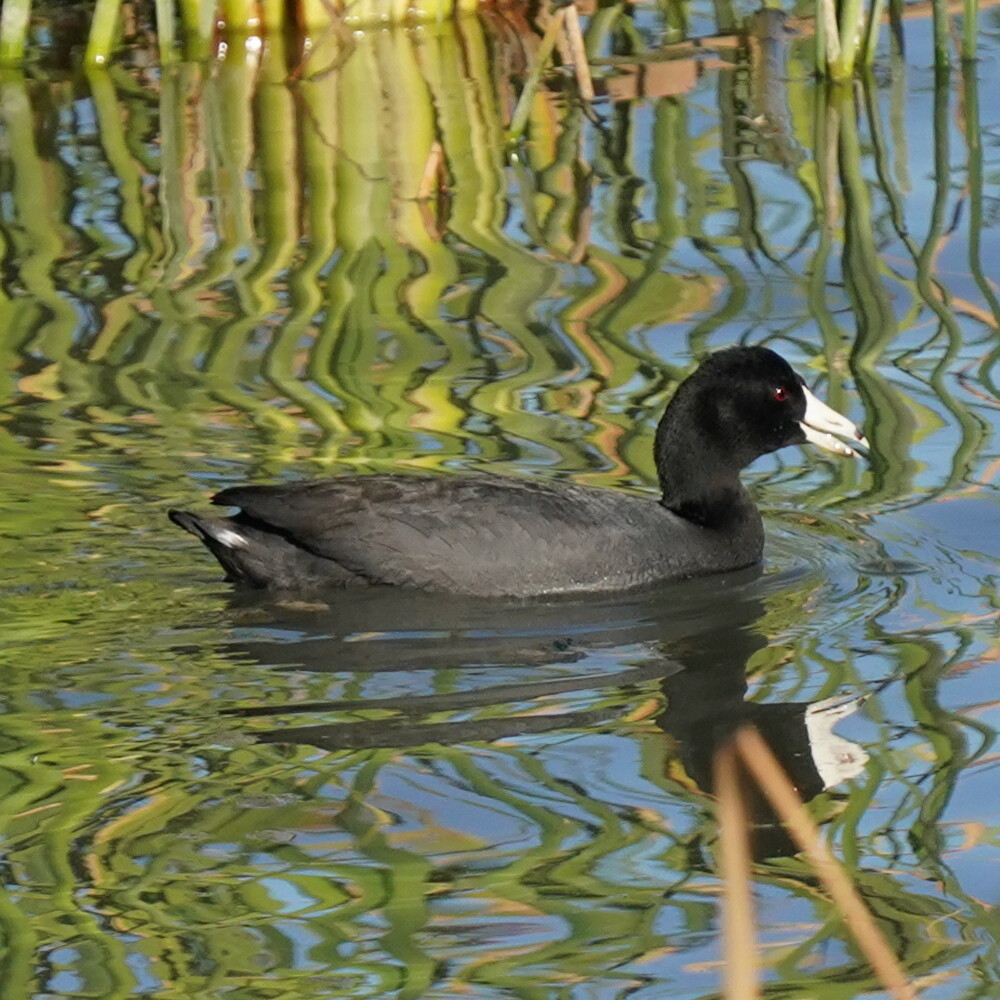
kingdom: Animalia
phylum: Chordata
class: Aves
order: Gruiformes
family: Rallidae
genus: Fulica
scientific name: Fulica americana
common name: American coot
